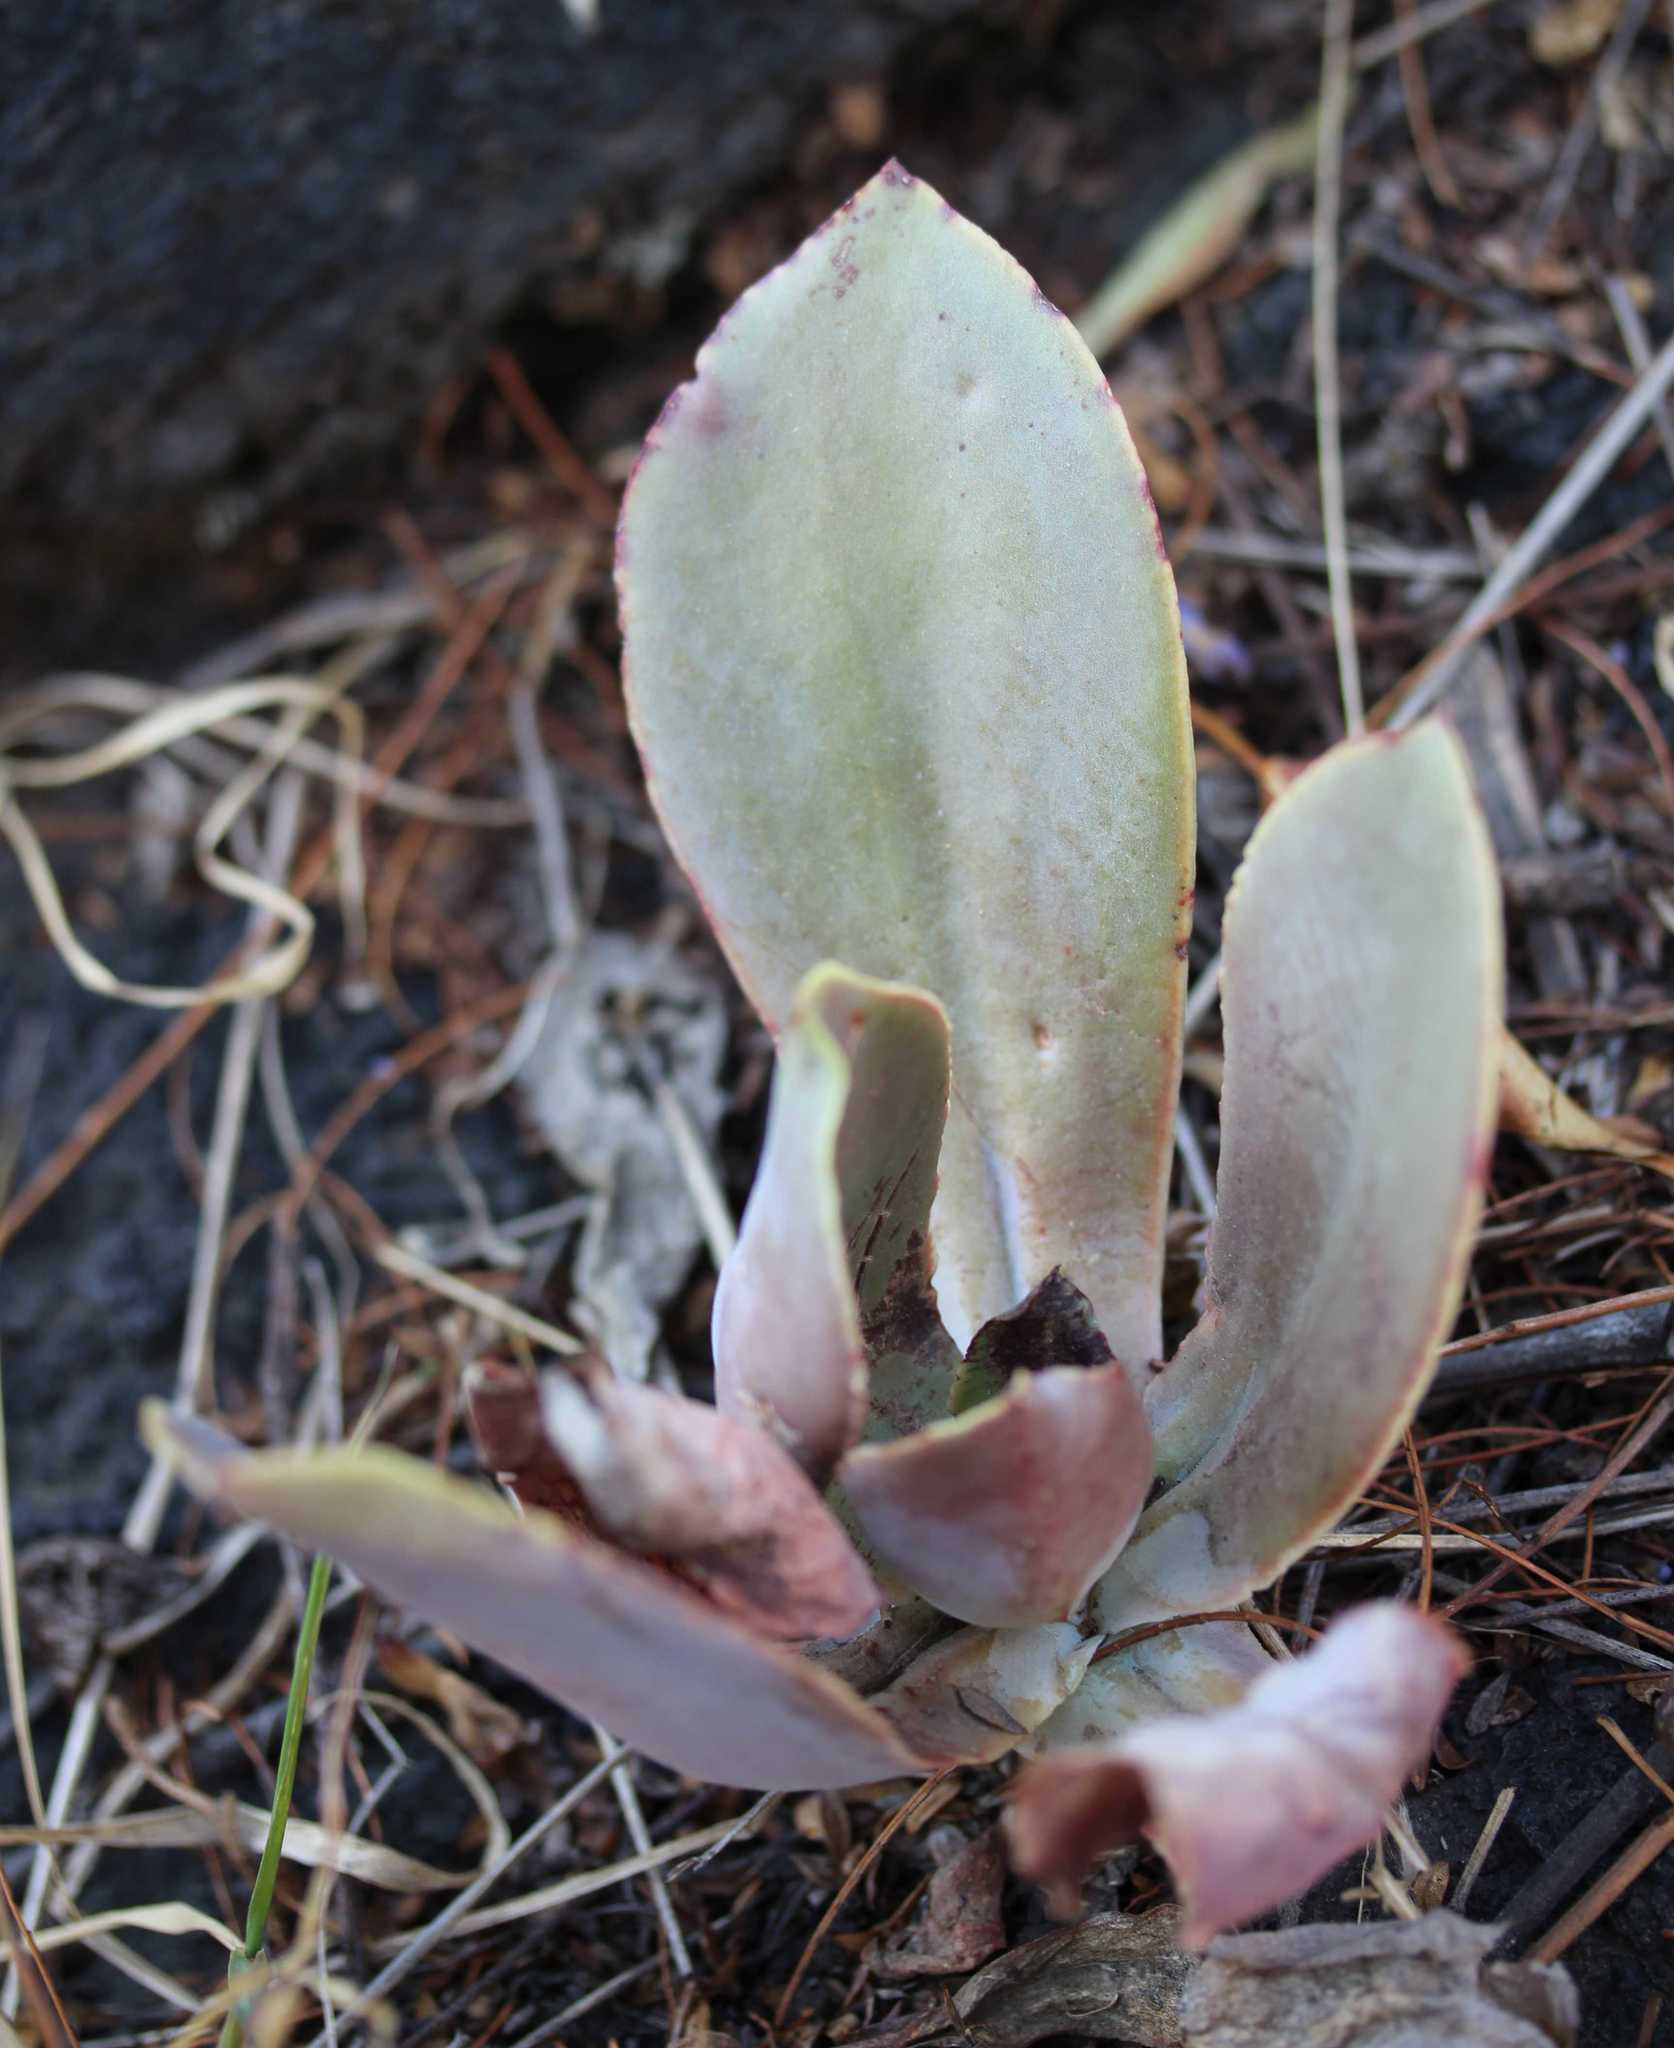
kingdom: Plantae
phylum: Tracheophyta
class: Magnoliopsida
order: Saxifragales
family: Crassulaceae
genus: Echeveria
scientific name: Echeveria gibbiflora
